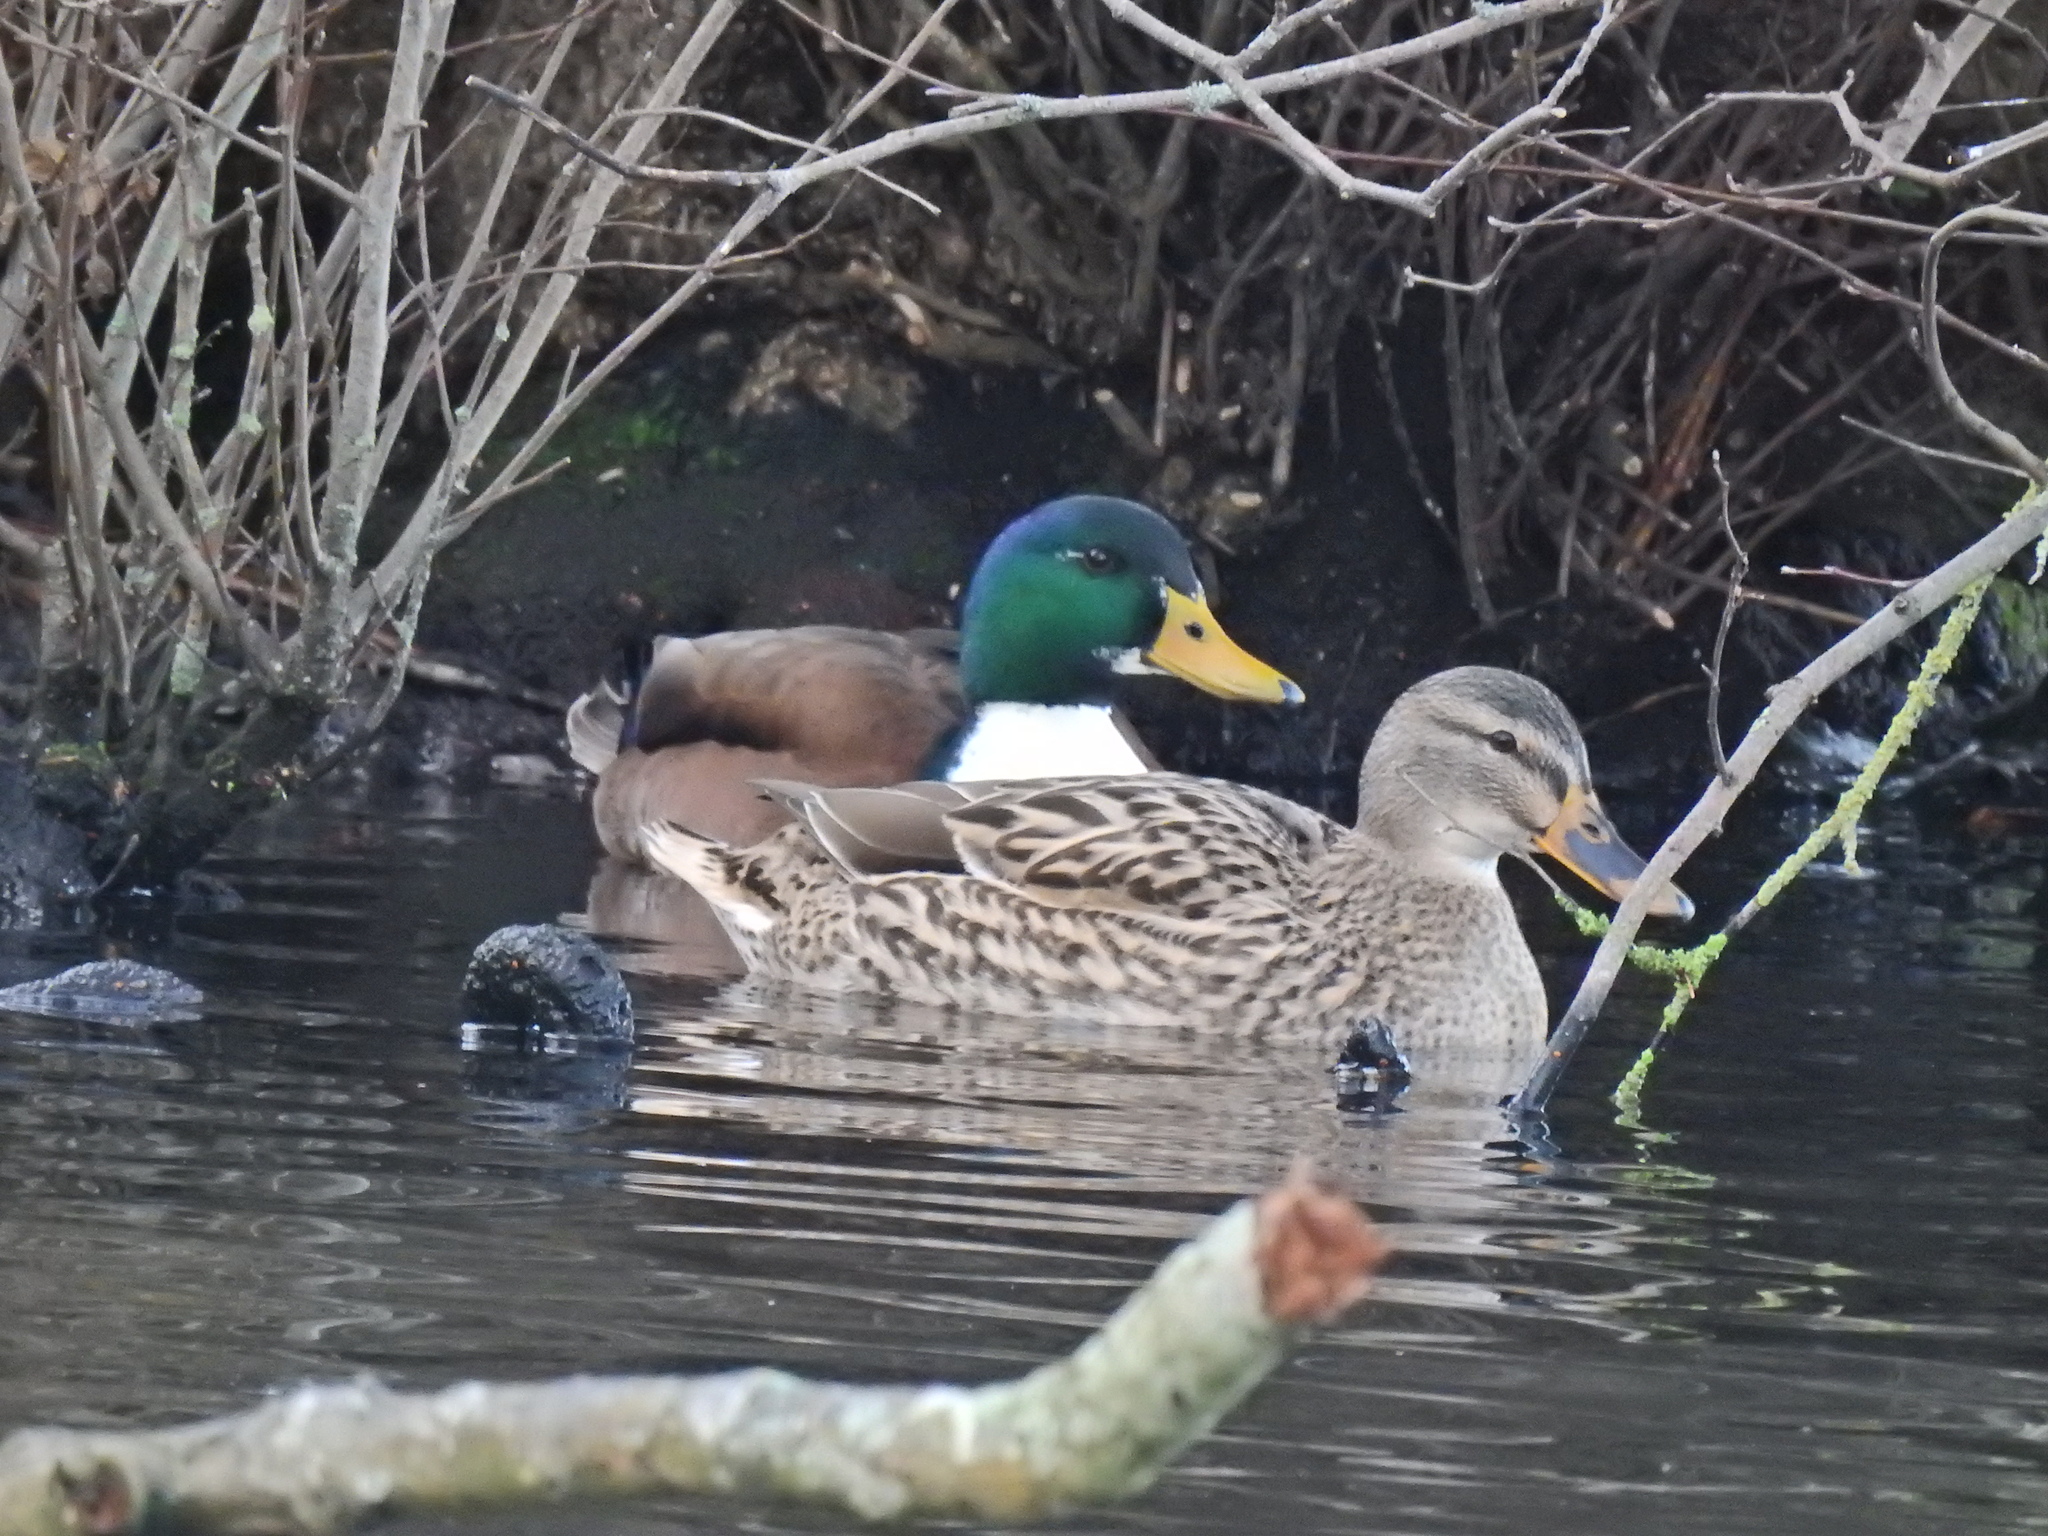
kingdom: Animalia
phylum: Chordata
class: Aves
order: Anseriformes
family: Anatidae
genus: Anas
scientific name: Anas platyrhynchos
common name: Mallard
